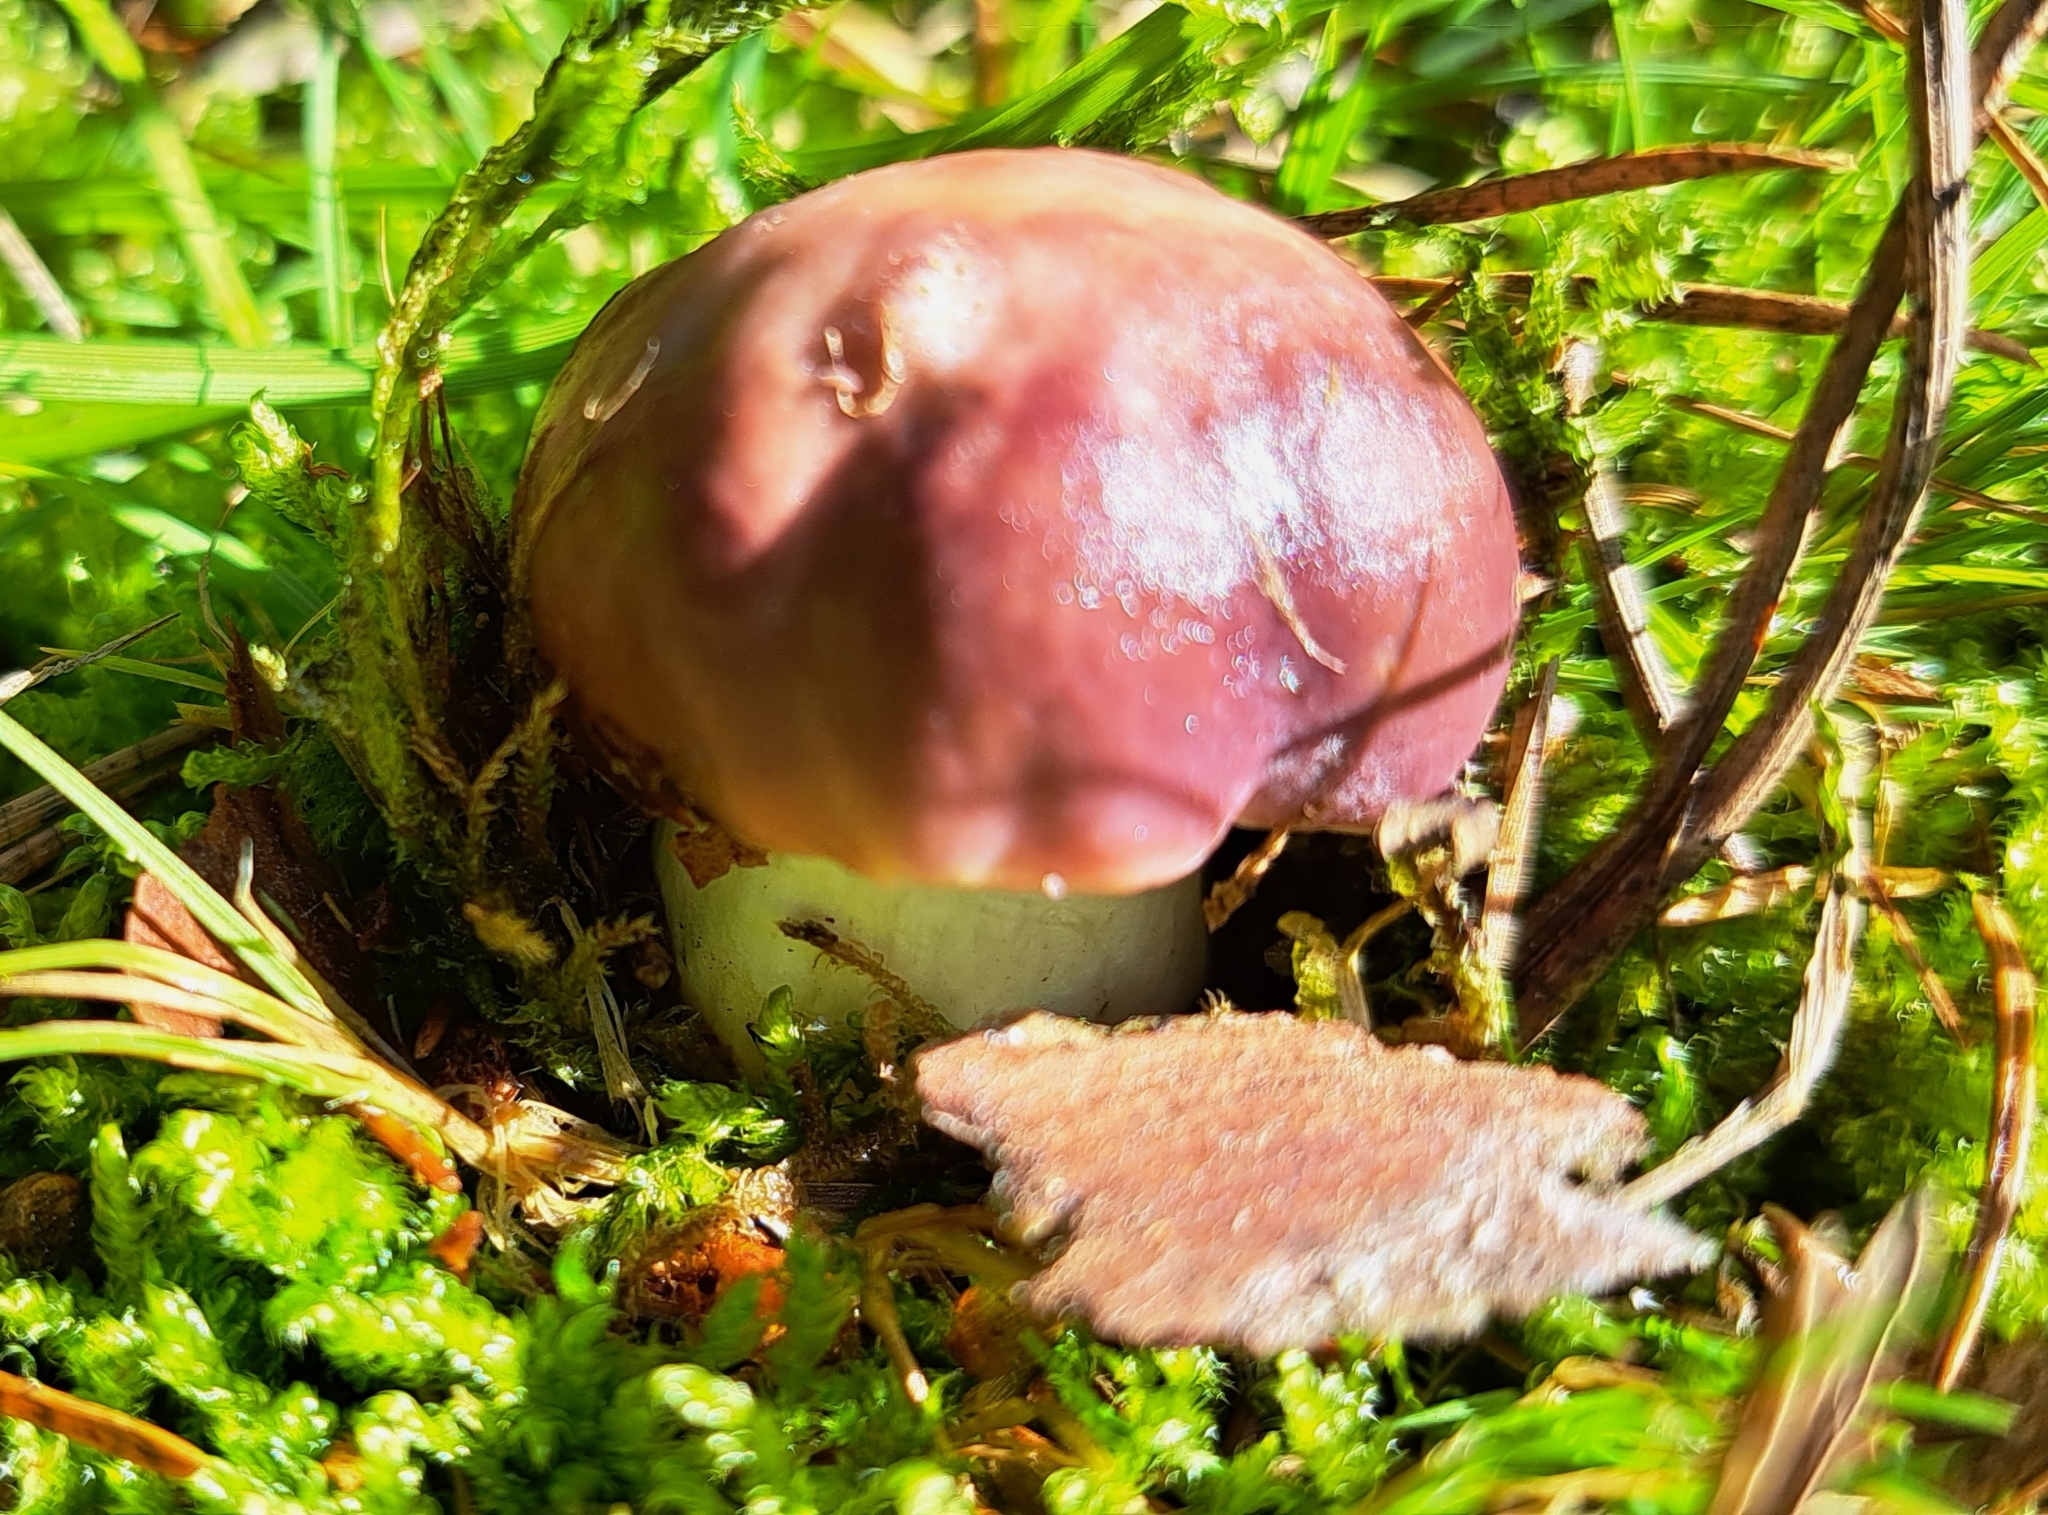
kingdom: Fungi
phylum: Basidiomycota
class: Agaricomycetes
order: Russulales
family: Russulaceae
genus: Russula
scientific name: Russula vesca
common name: Bare-toothed russula
